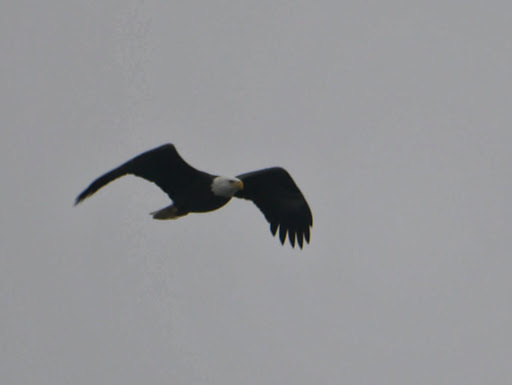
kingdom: Animalia
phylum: Chordata
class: Aves
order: Accipitriformes
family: Accipitridae
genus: Haliaeetus
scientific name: Haliaeetus leucocephalus
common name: Bald eagle
